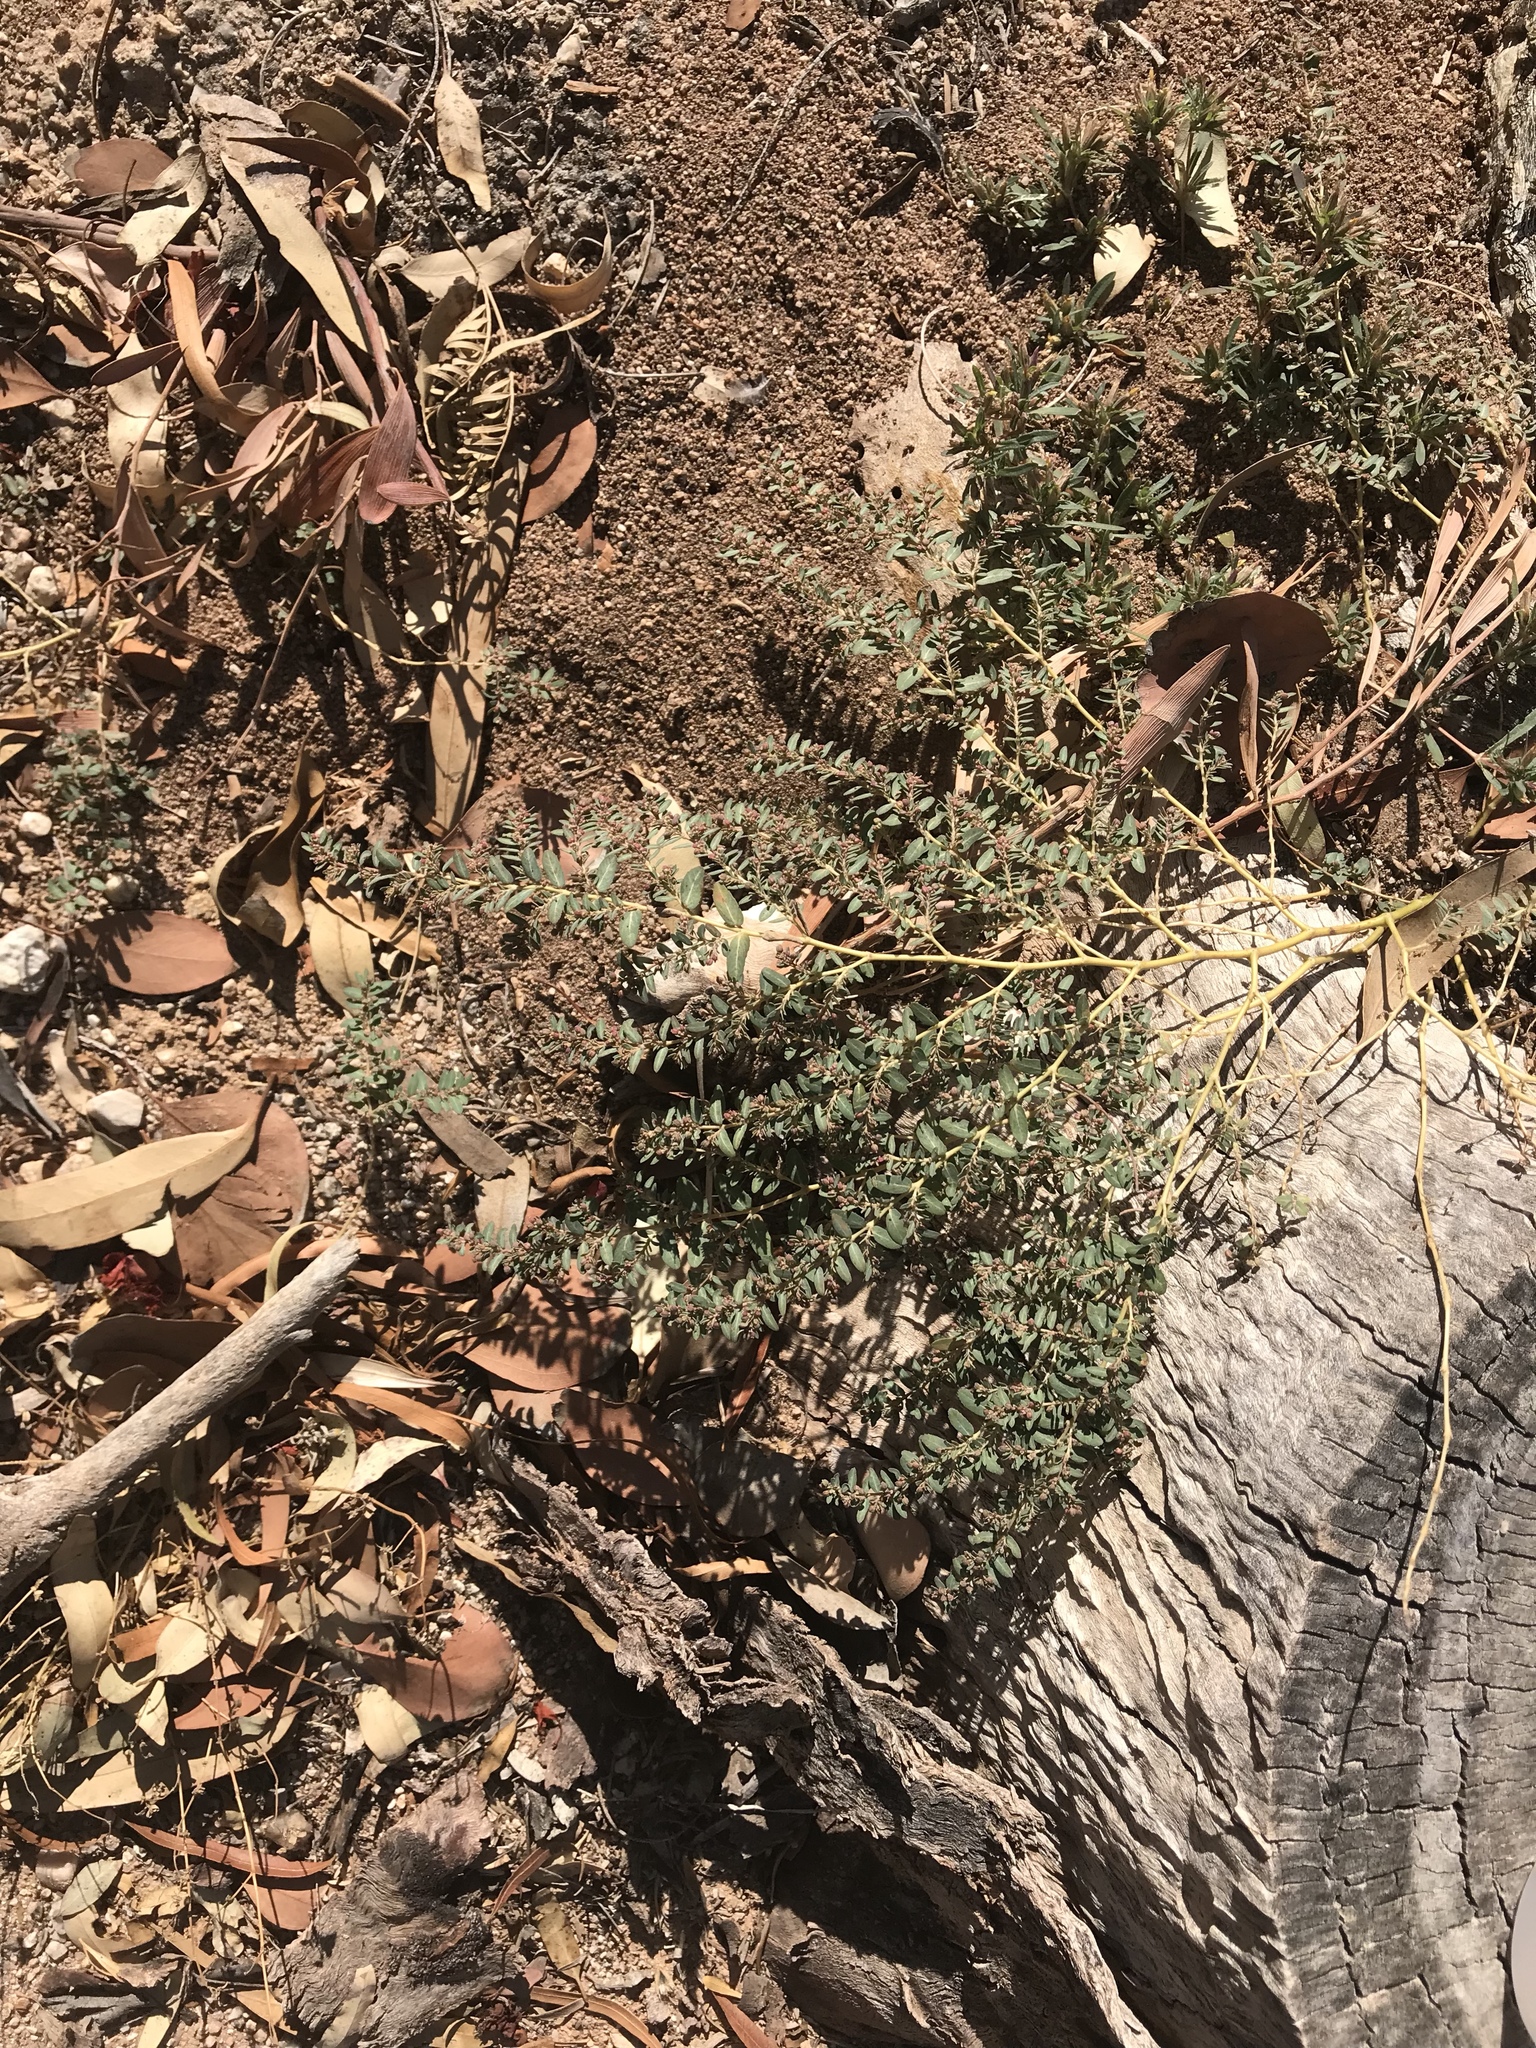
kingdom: Plantae
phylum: Tracheophyta
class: Magnoliopsida
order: Malpighiales
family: Euphorbiaceae
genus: Euphorbia
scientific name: Euphorbia abramsiana
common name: Abram's spurge
